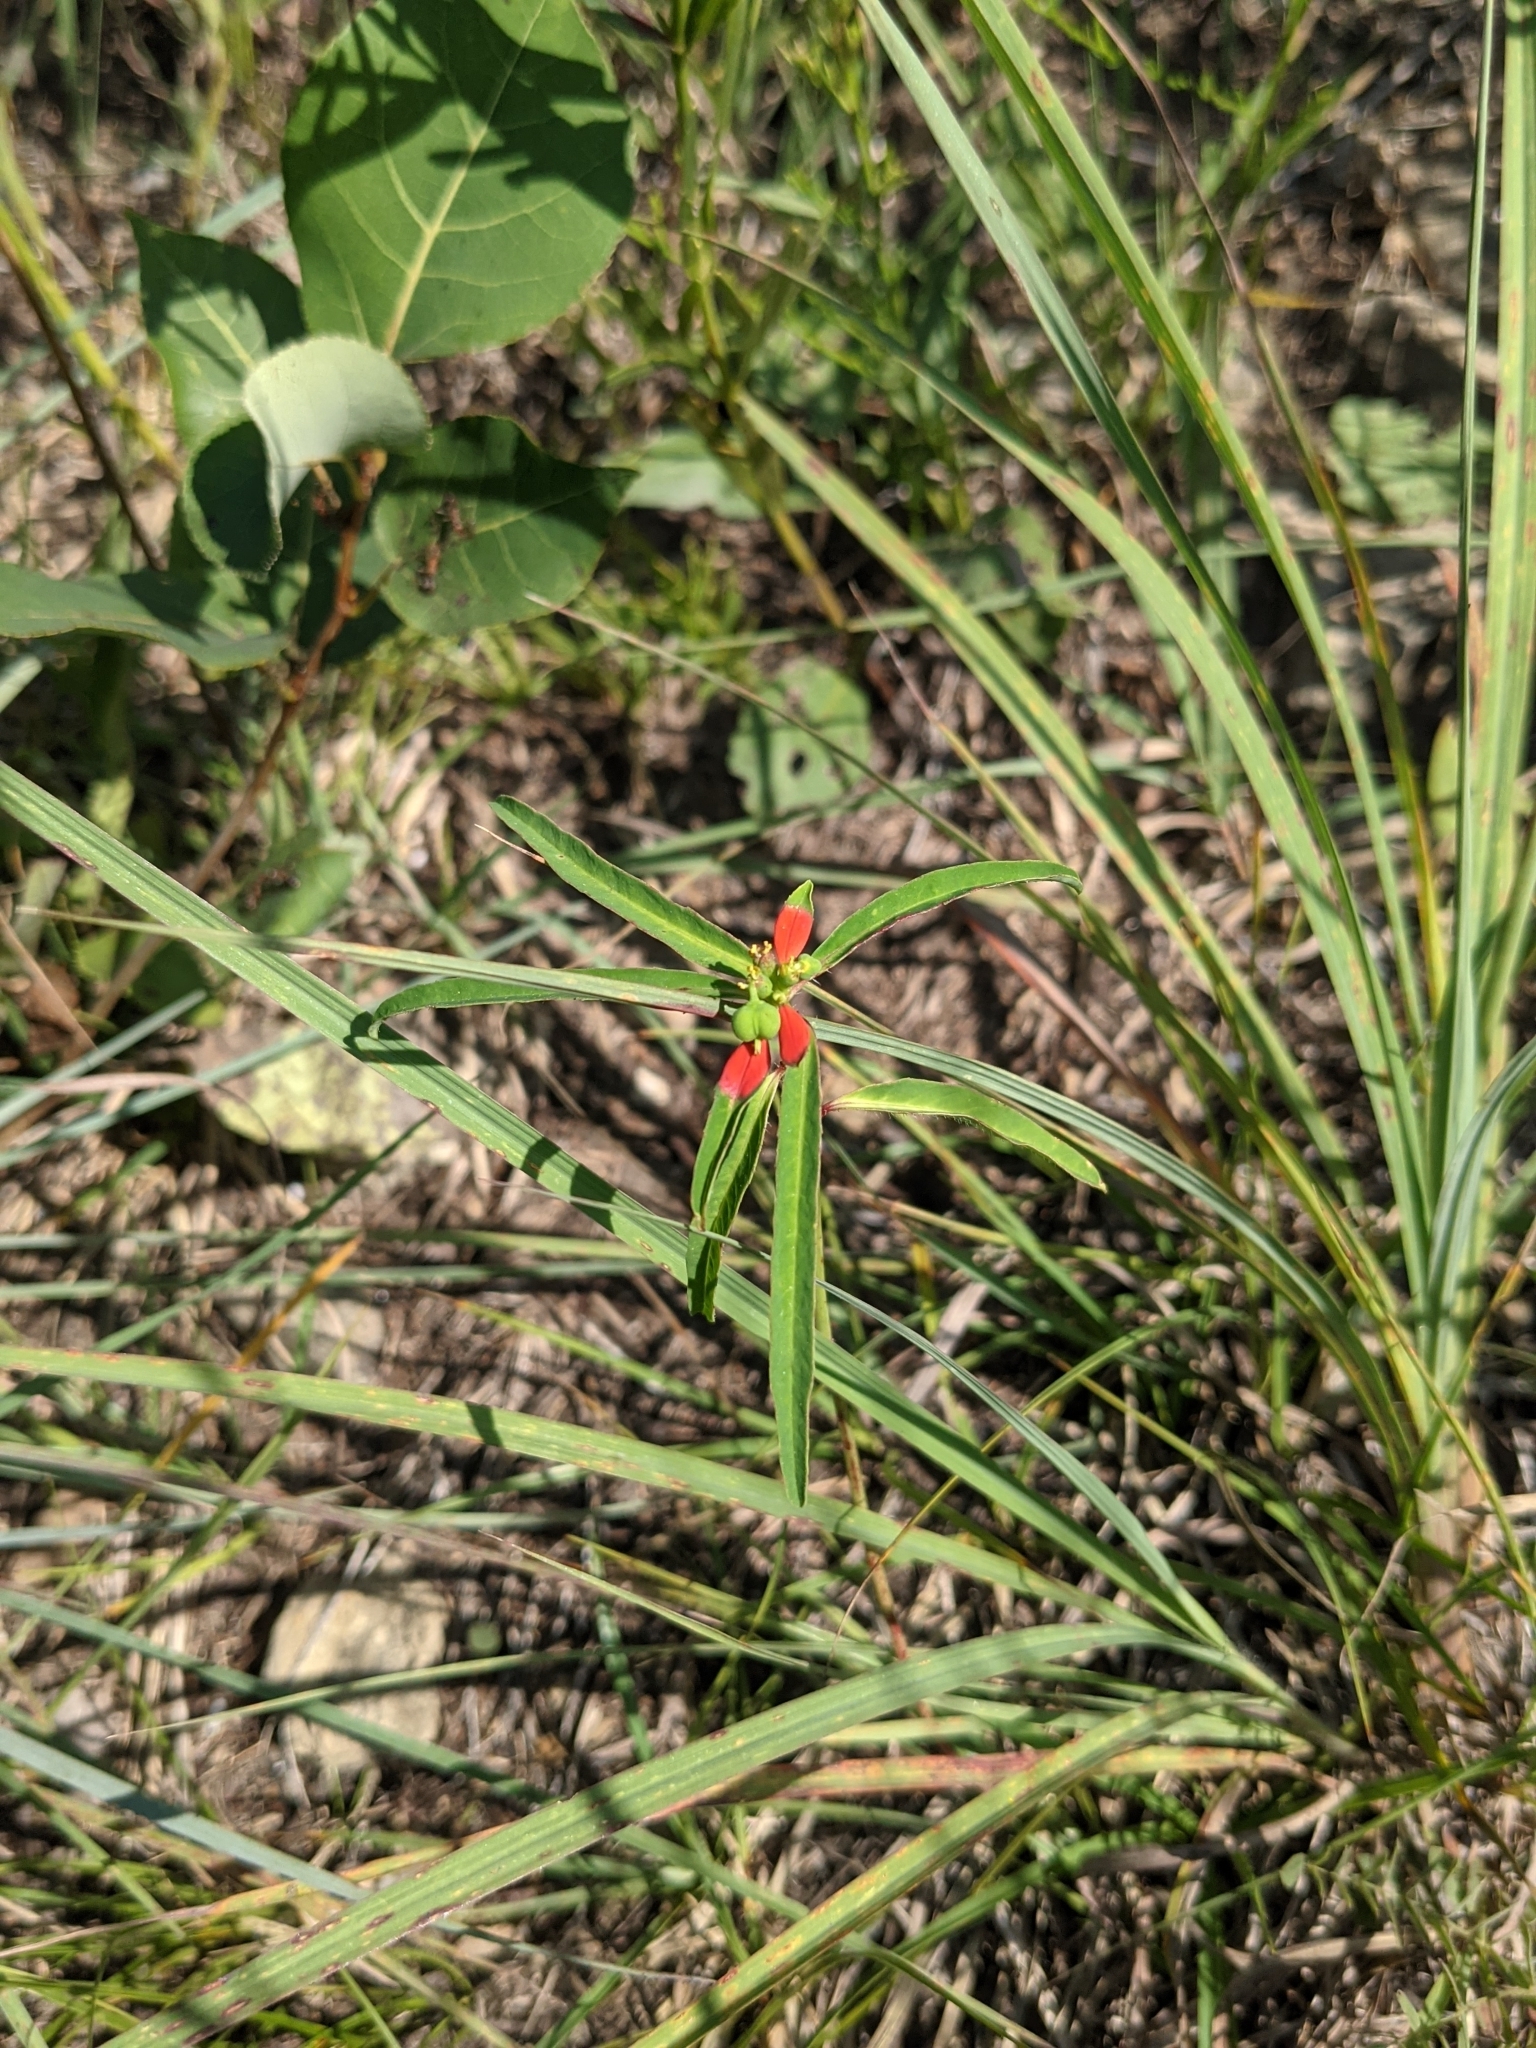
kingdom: Plantae
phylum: Tracheophyta
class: Magnoliopsida
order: Malpighiales
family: Euphorbiaceae
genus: Euphorbia
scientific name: Euphorbia heterophylla
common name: Mexican fireplant
